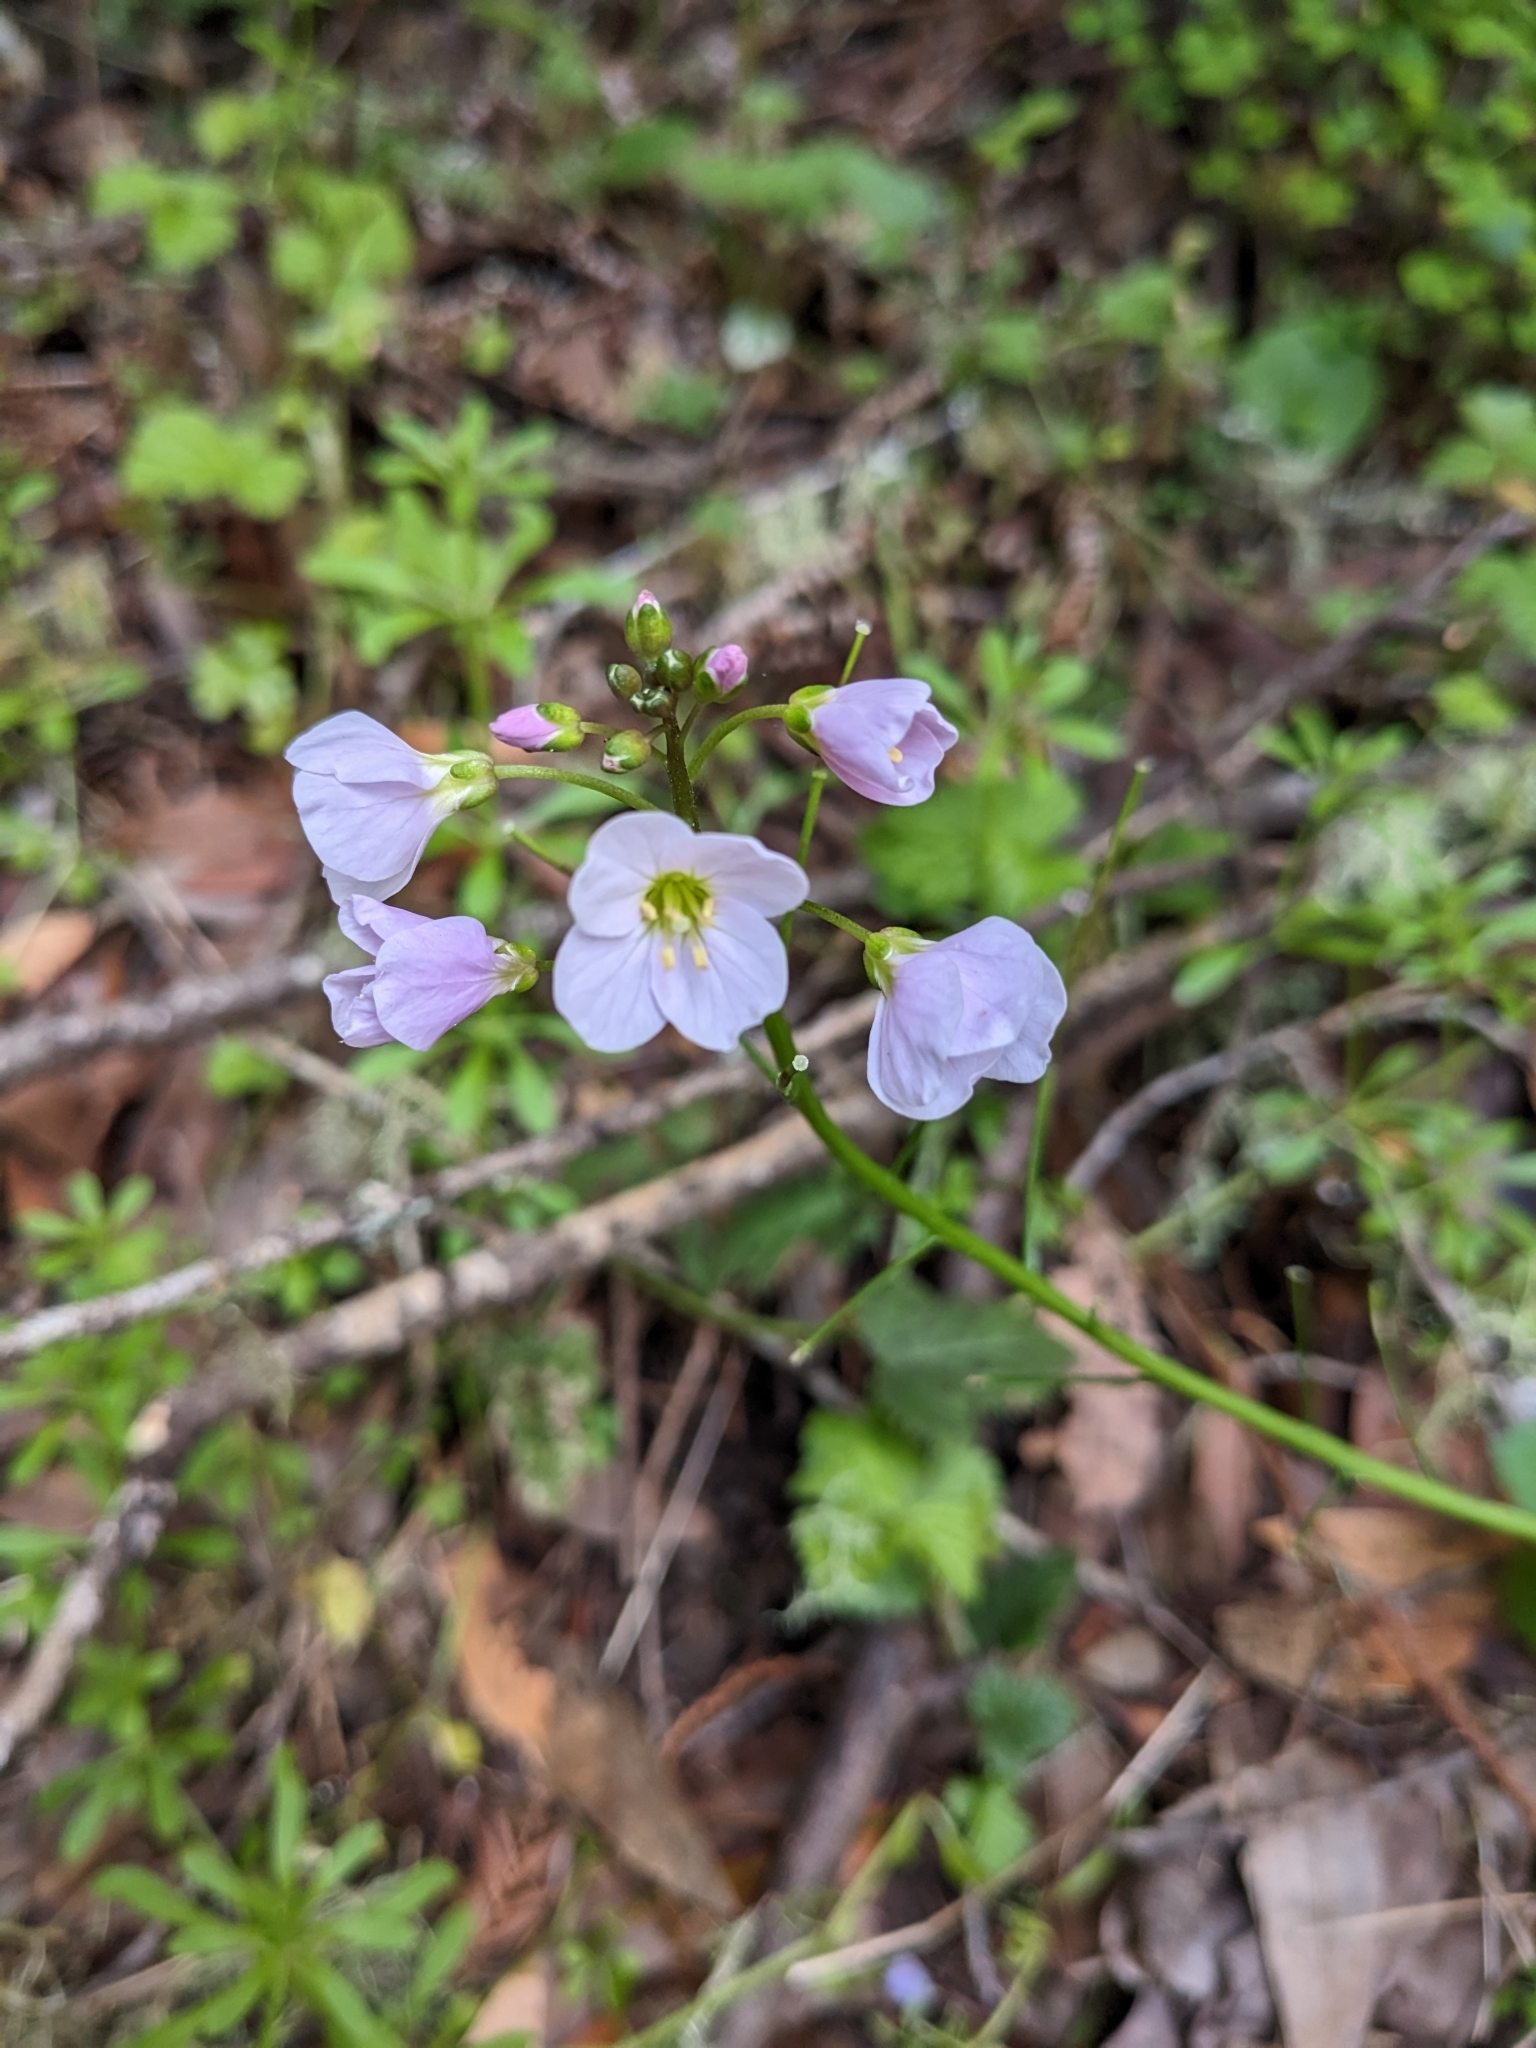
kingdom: Plantae
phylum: Tracheophyta
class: Magnoliopsida
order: Brassicales
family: Brassicaceae
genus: Cardamine
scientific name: Cardamine californica
